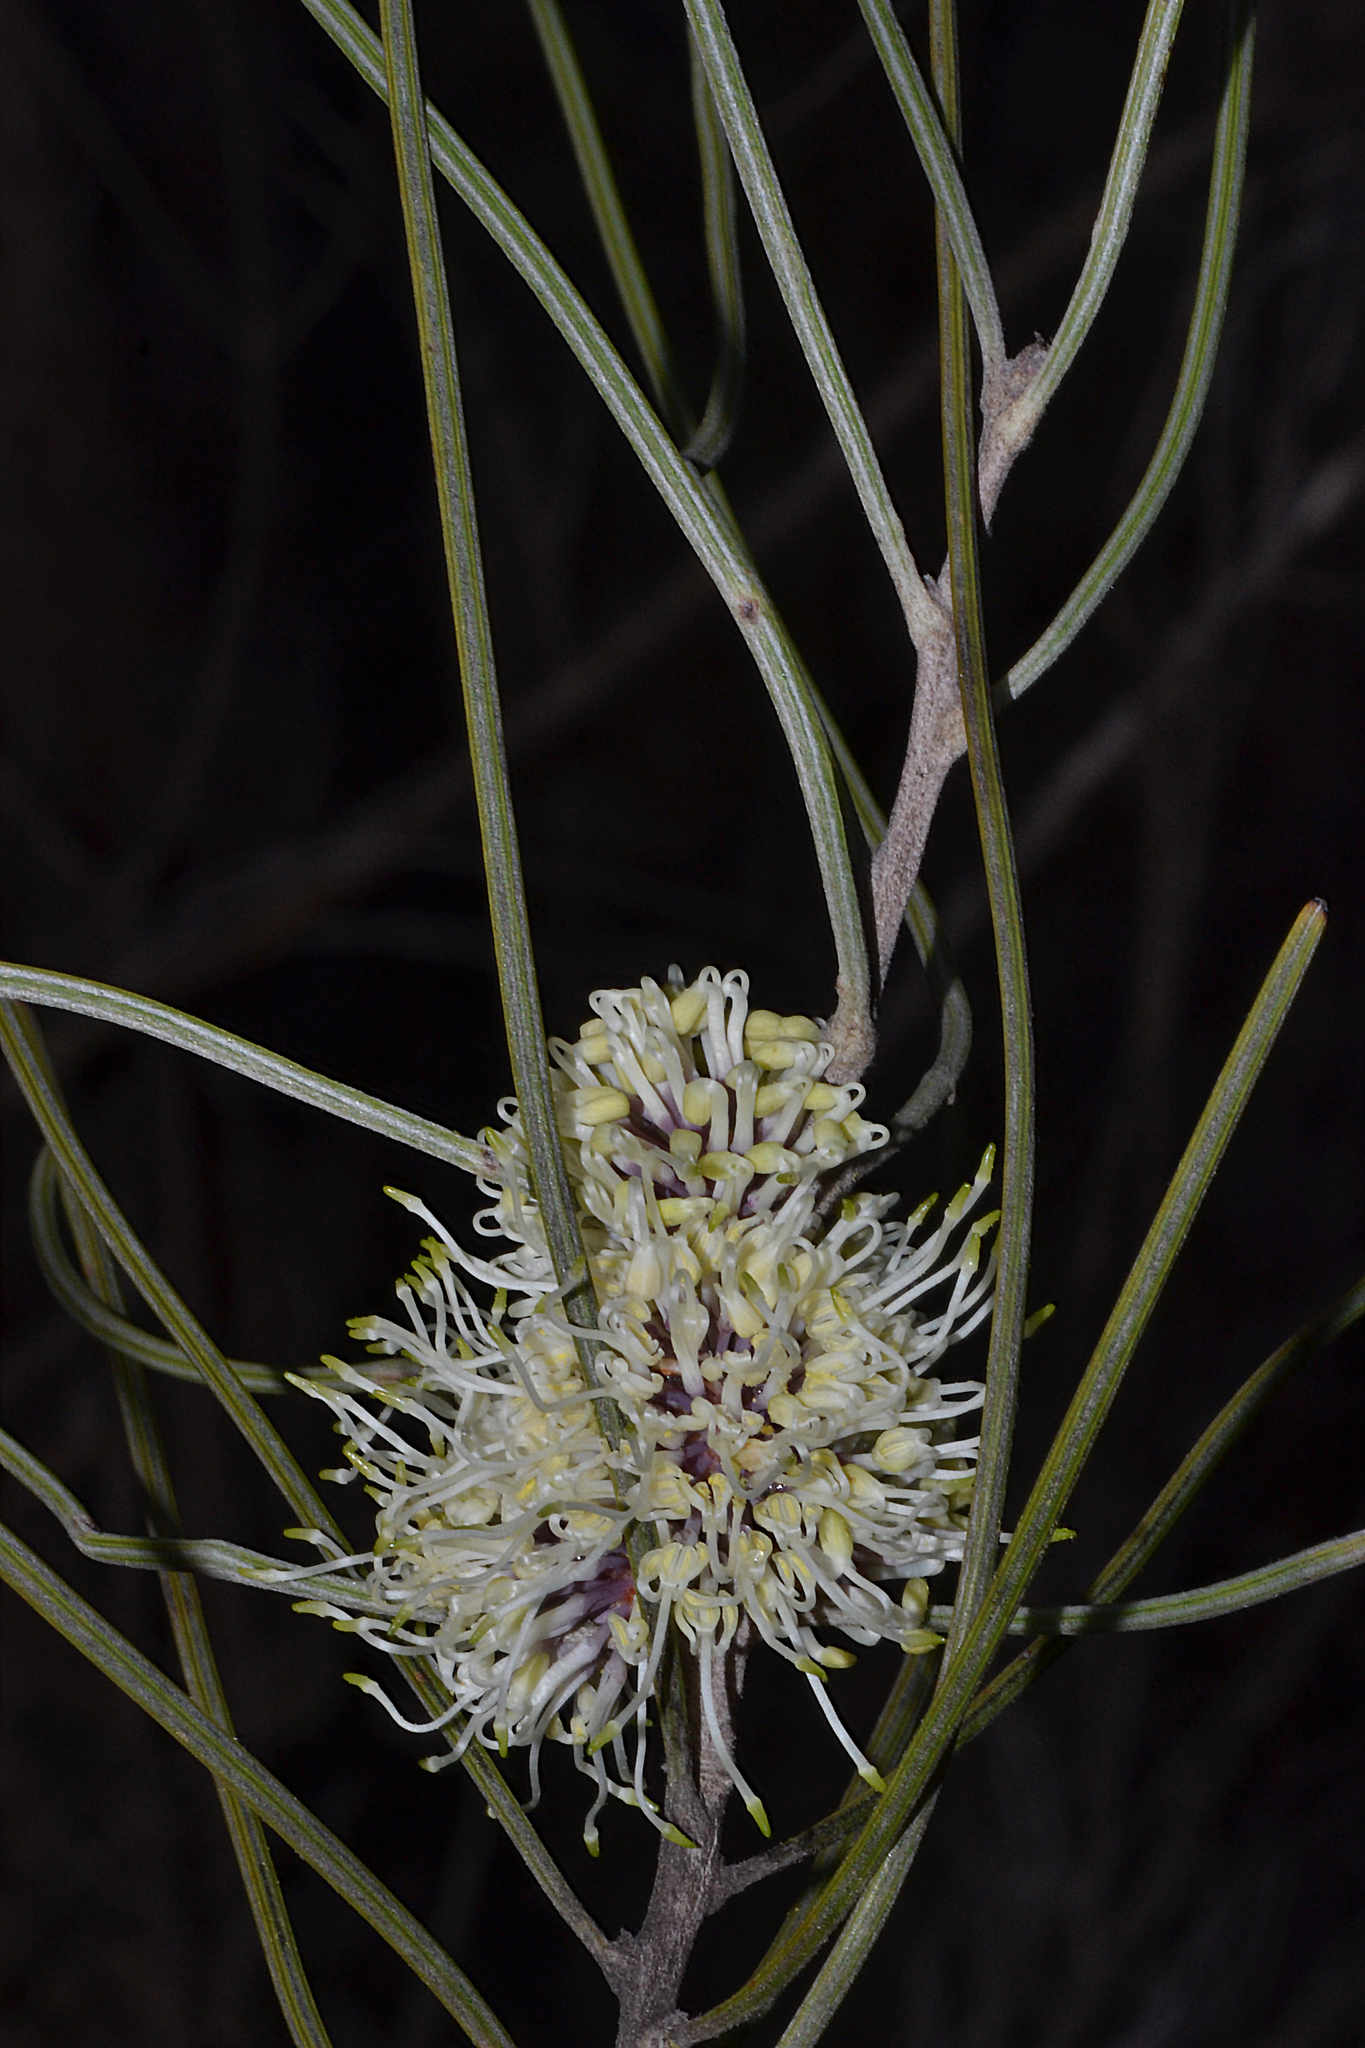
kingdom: Plantae
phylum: Tracheophyta
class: Magnoliopsida
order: Proteales
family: Proteaceae
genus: Hakea
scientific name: Hakea scoparia
